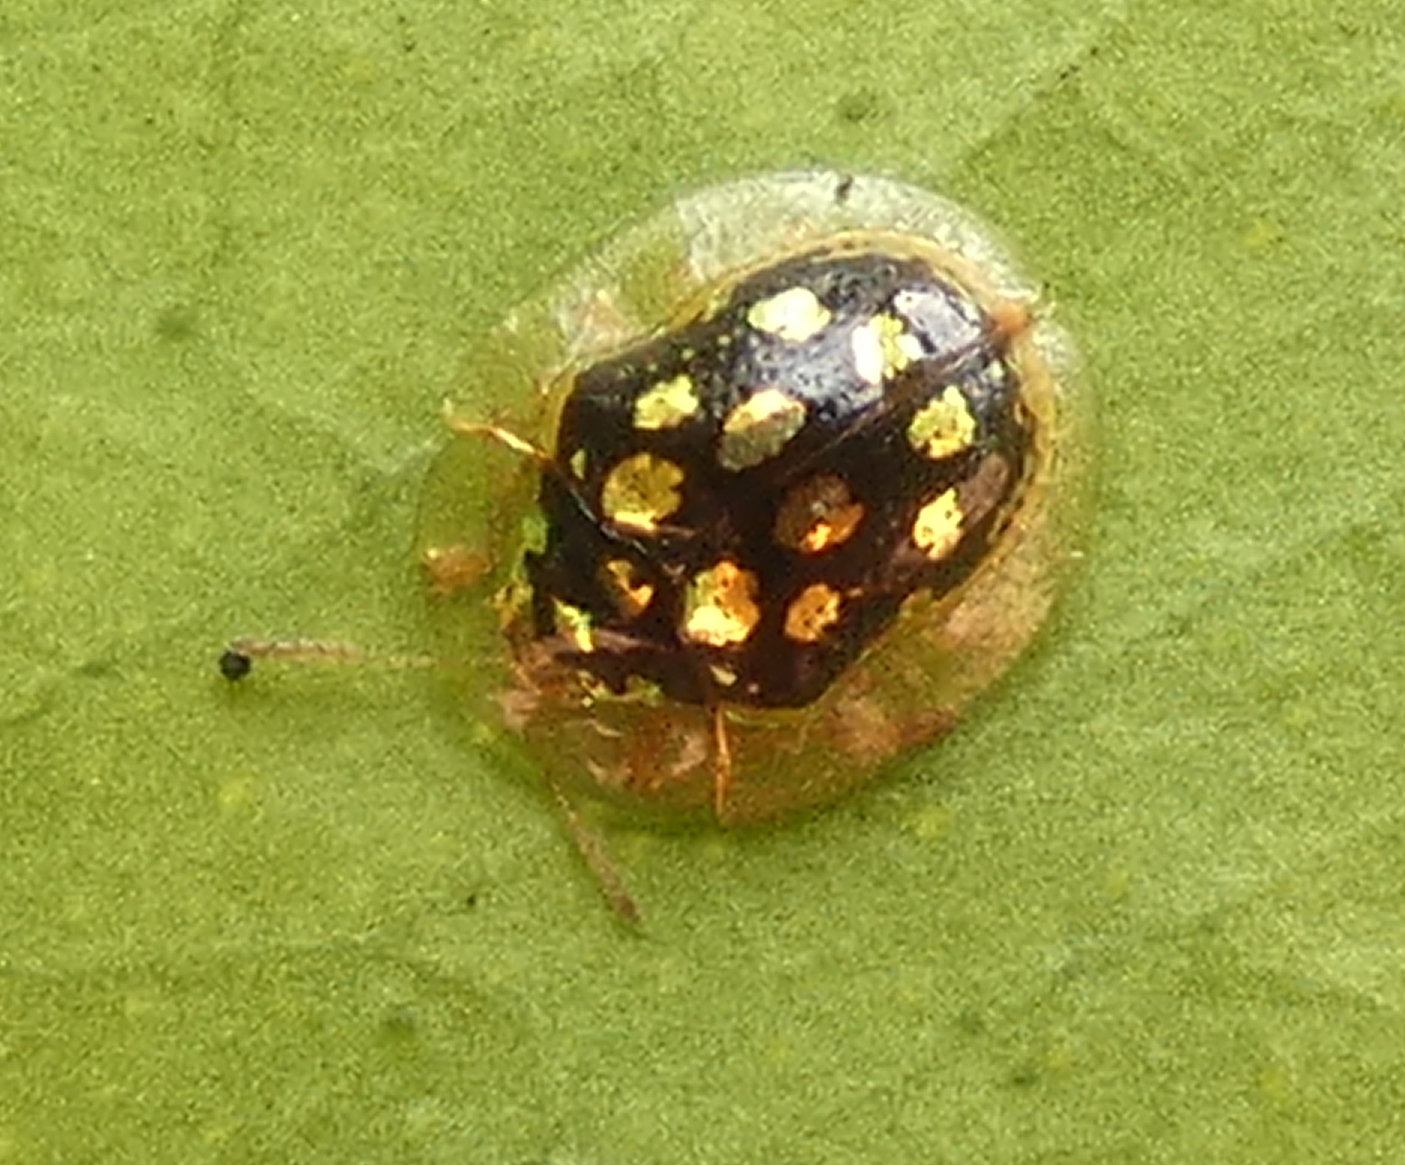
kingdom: Animalia
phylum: Arthropoda
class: Insecta
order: Coleoptera
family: Chrysomelidae
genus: Plagiometriona
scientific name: Plagiometriona microcera
